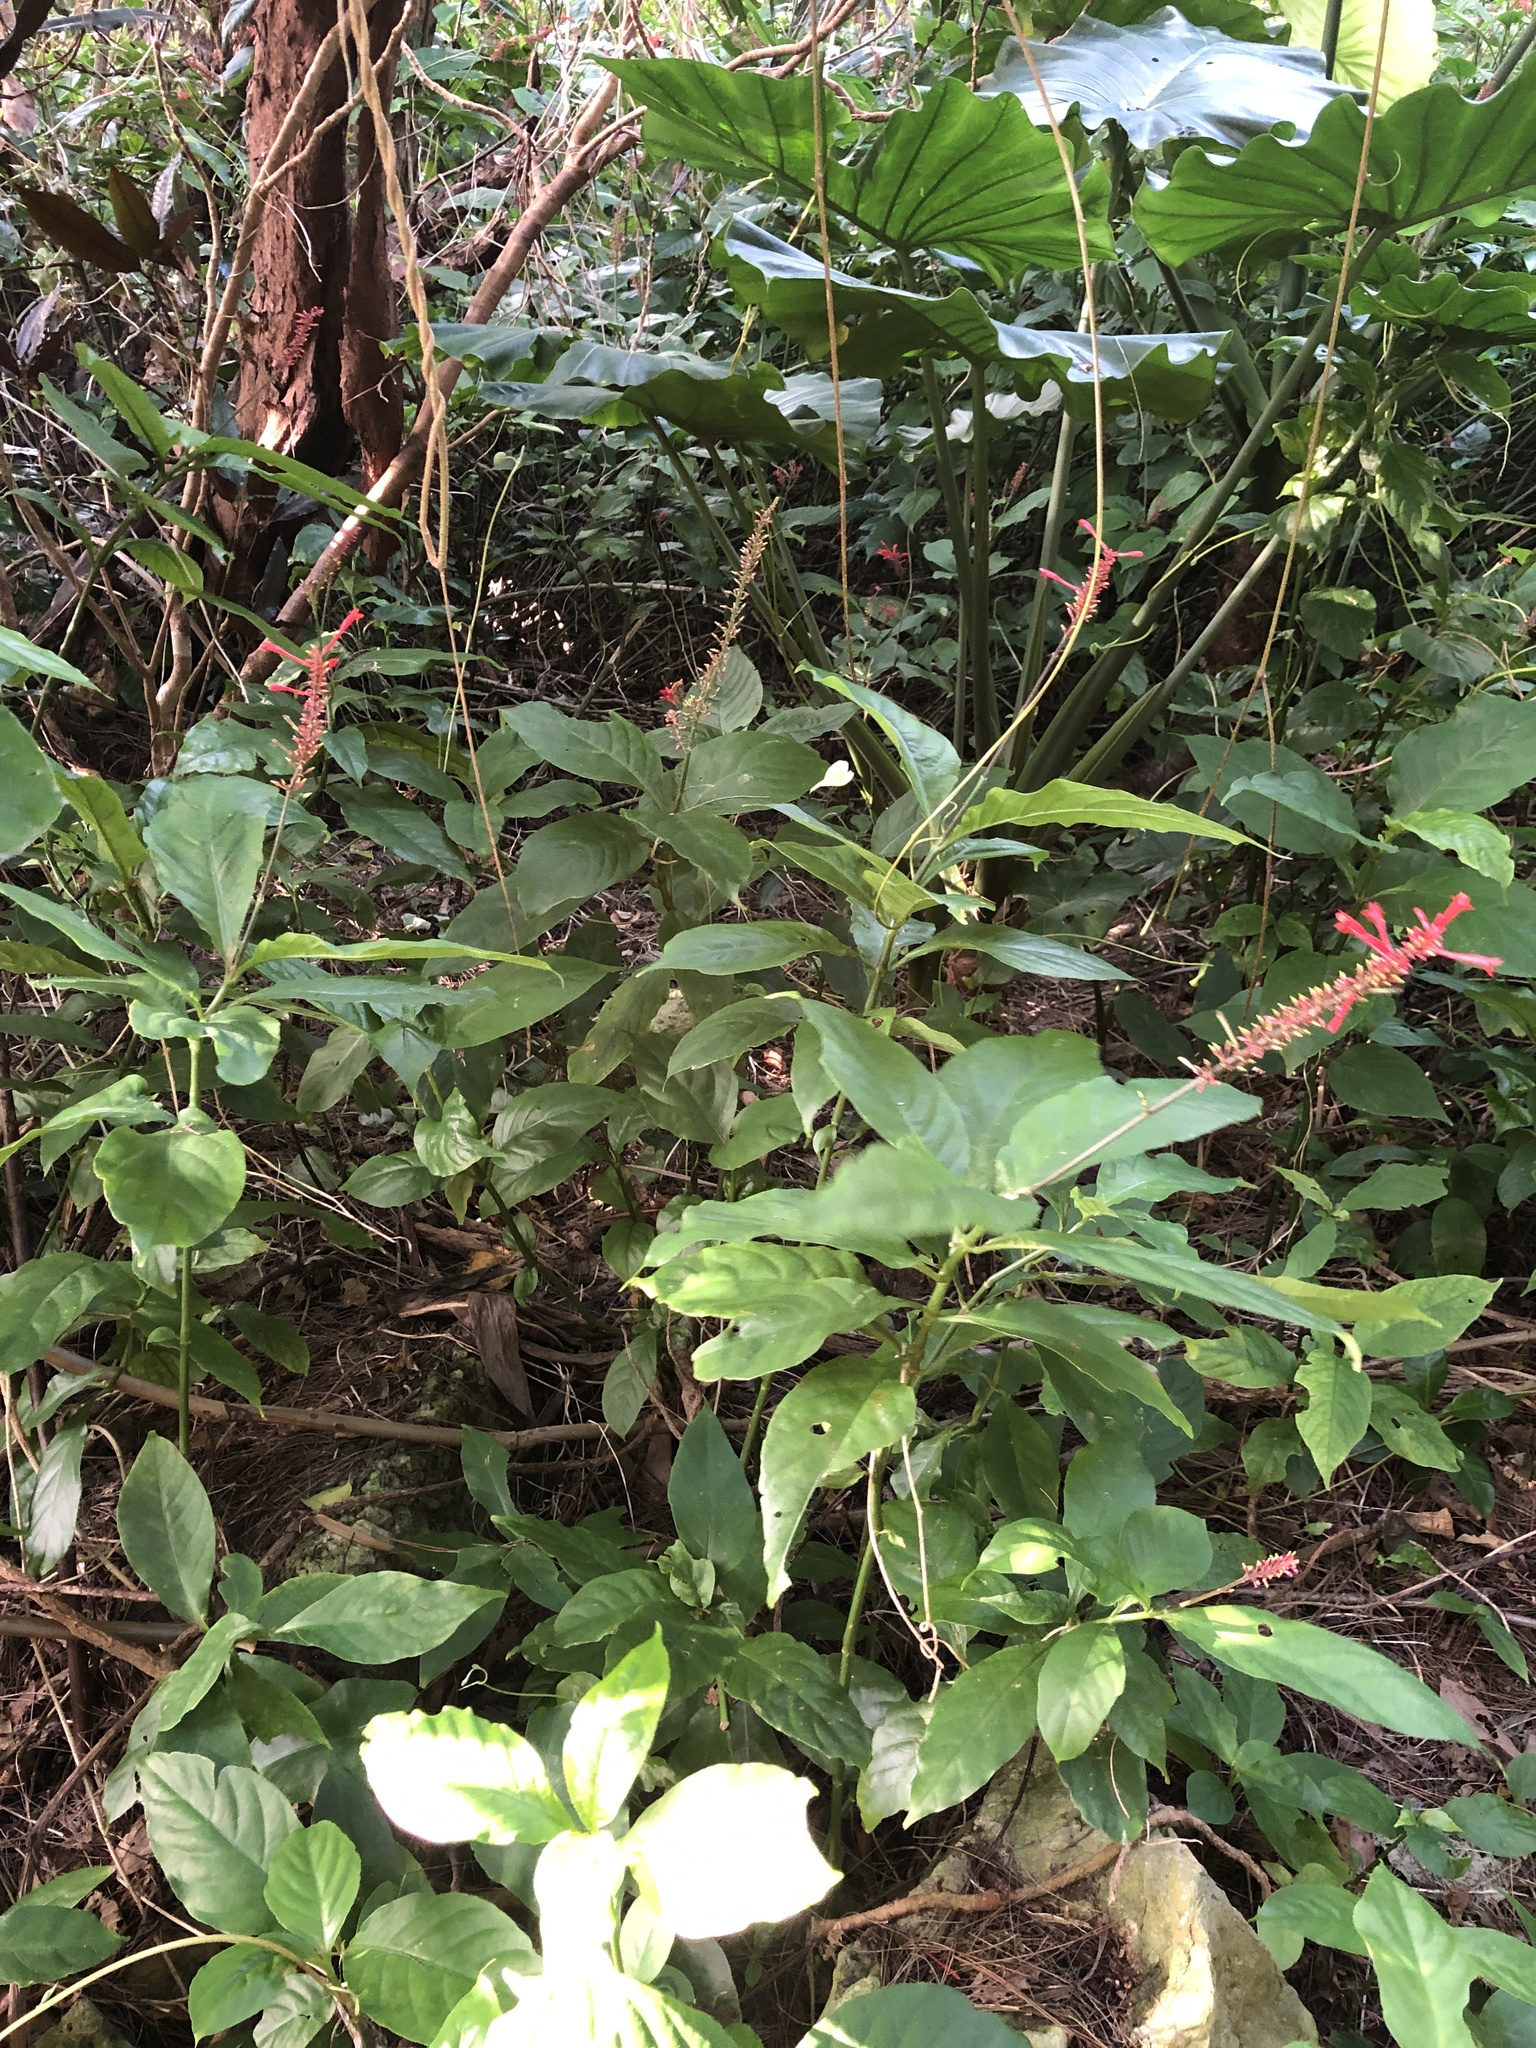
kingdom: Plantae
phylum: Tracheophyta
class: Magnoliopsida
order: Lamiales
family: Acanthaceae
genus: Odontonema
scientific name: Odontonema tubaeforme
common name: Firespike
